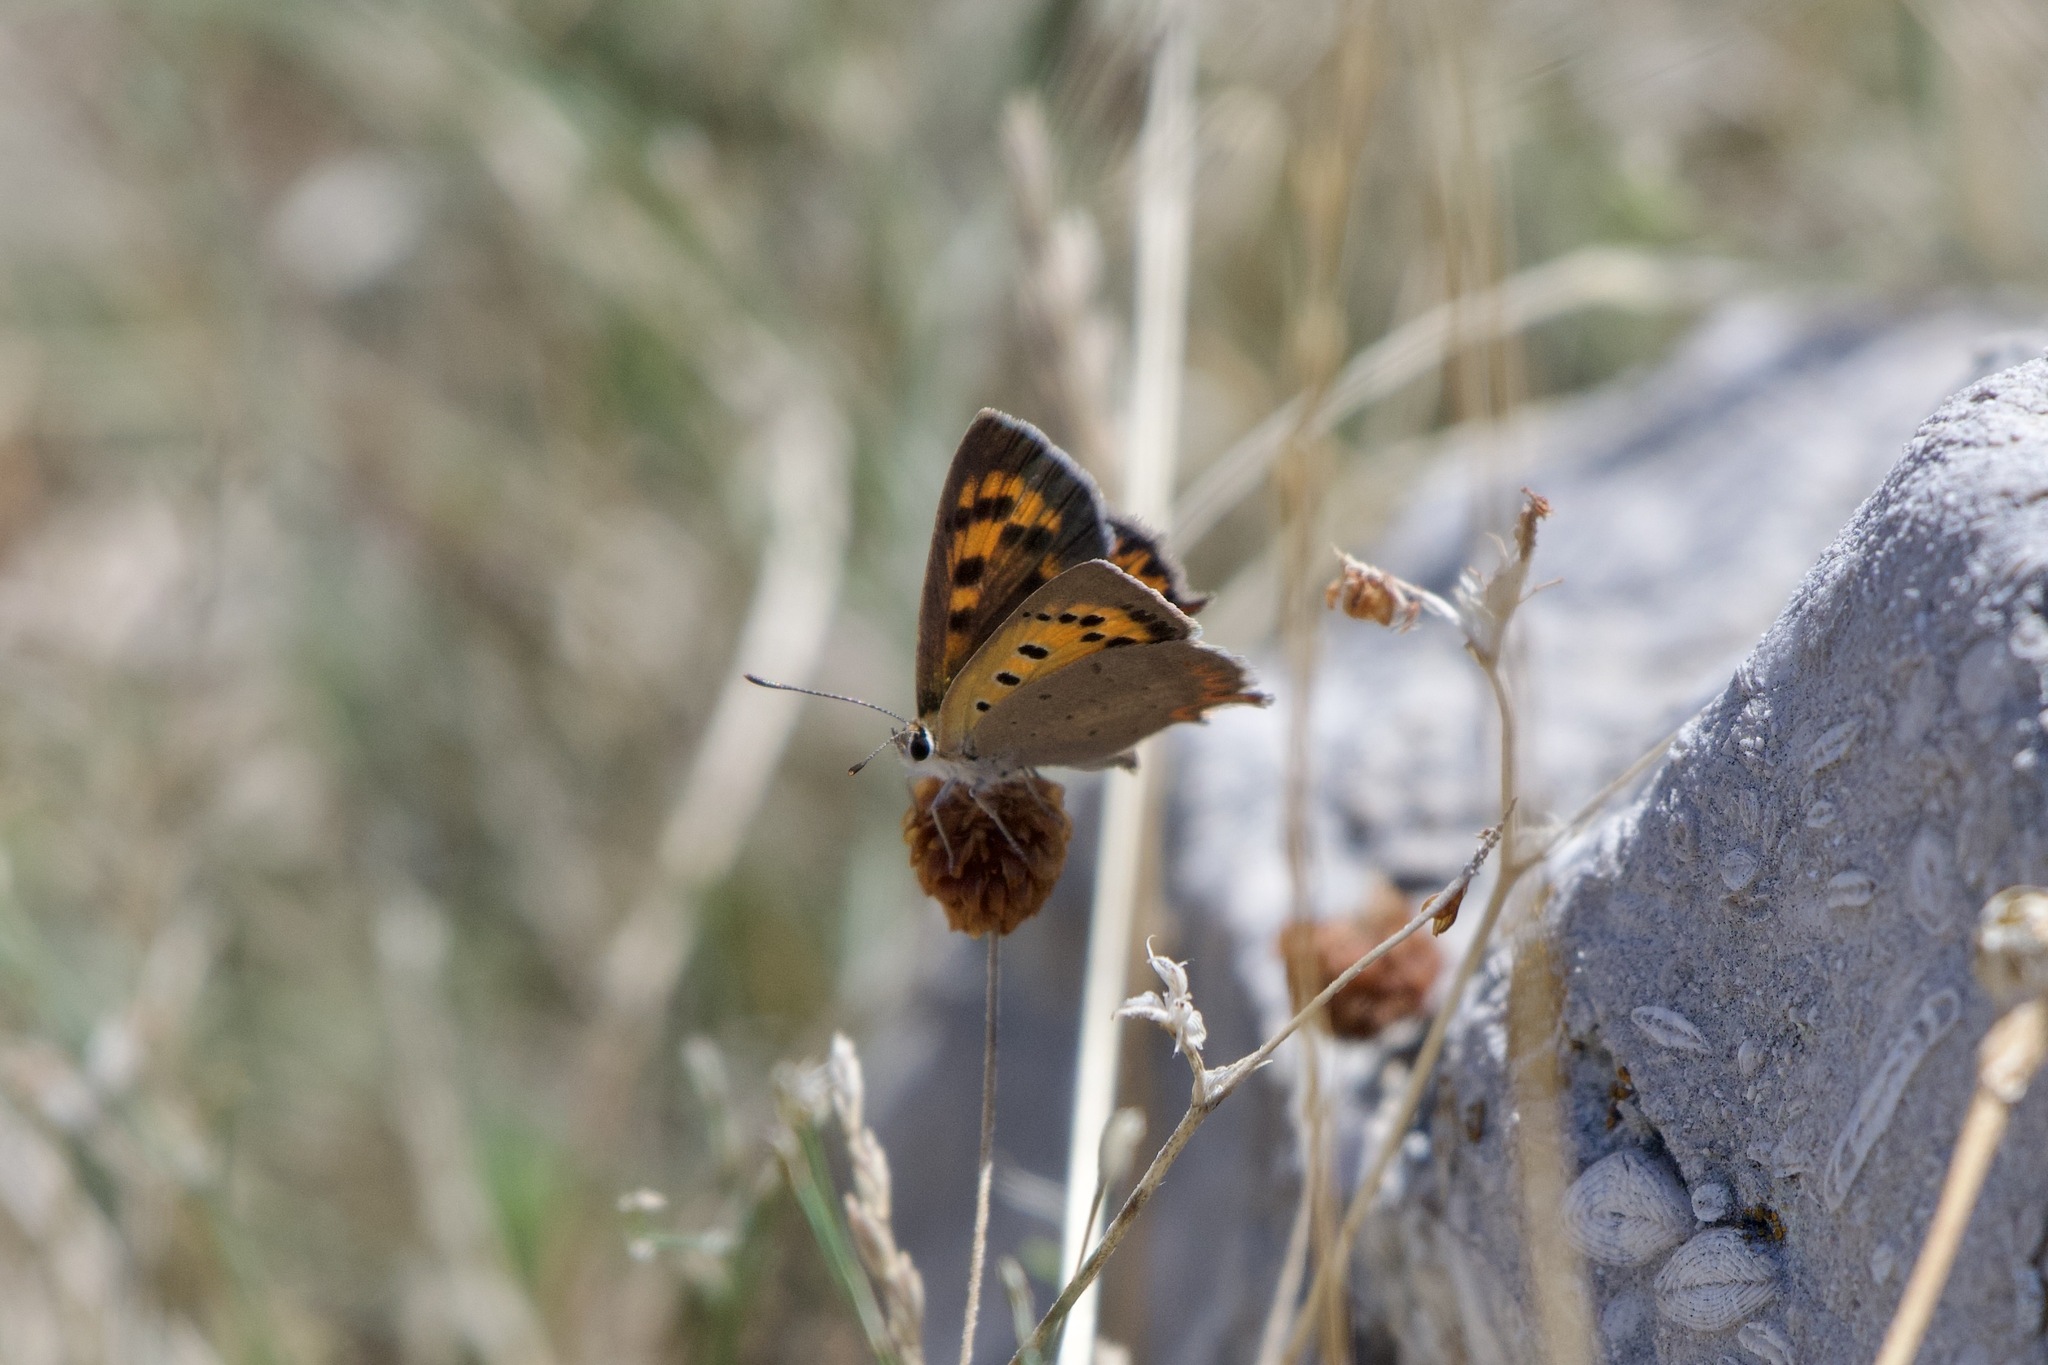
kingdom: Animalia
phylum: Arthropoda
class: Insecta
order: Lepidoptera
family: Lycaenidae
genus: Lycaena
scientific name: Lycaena phlaeas
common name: Small copper
